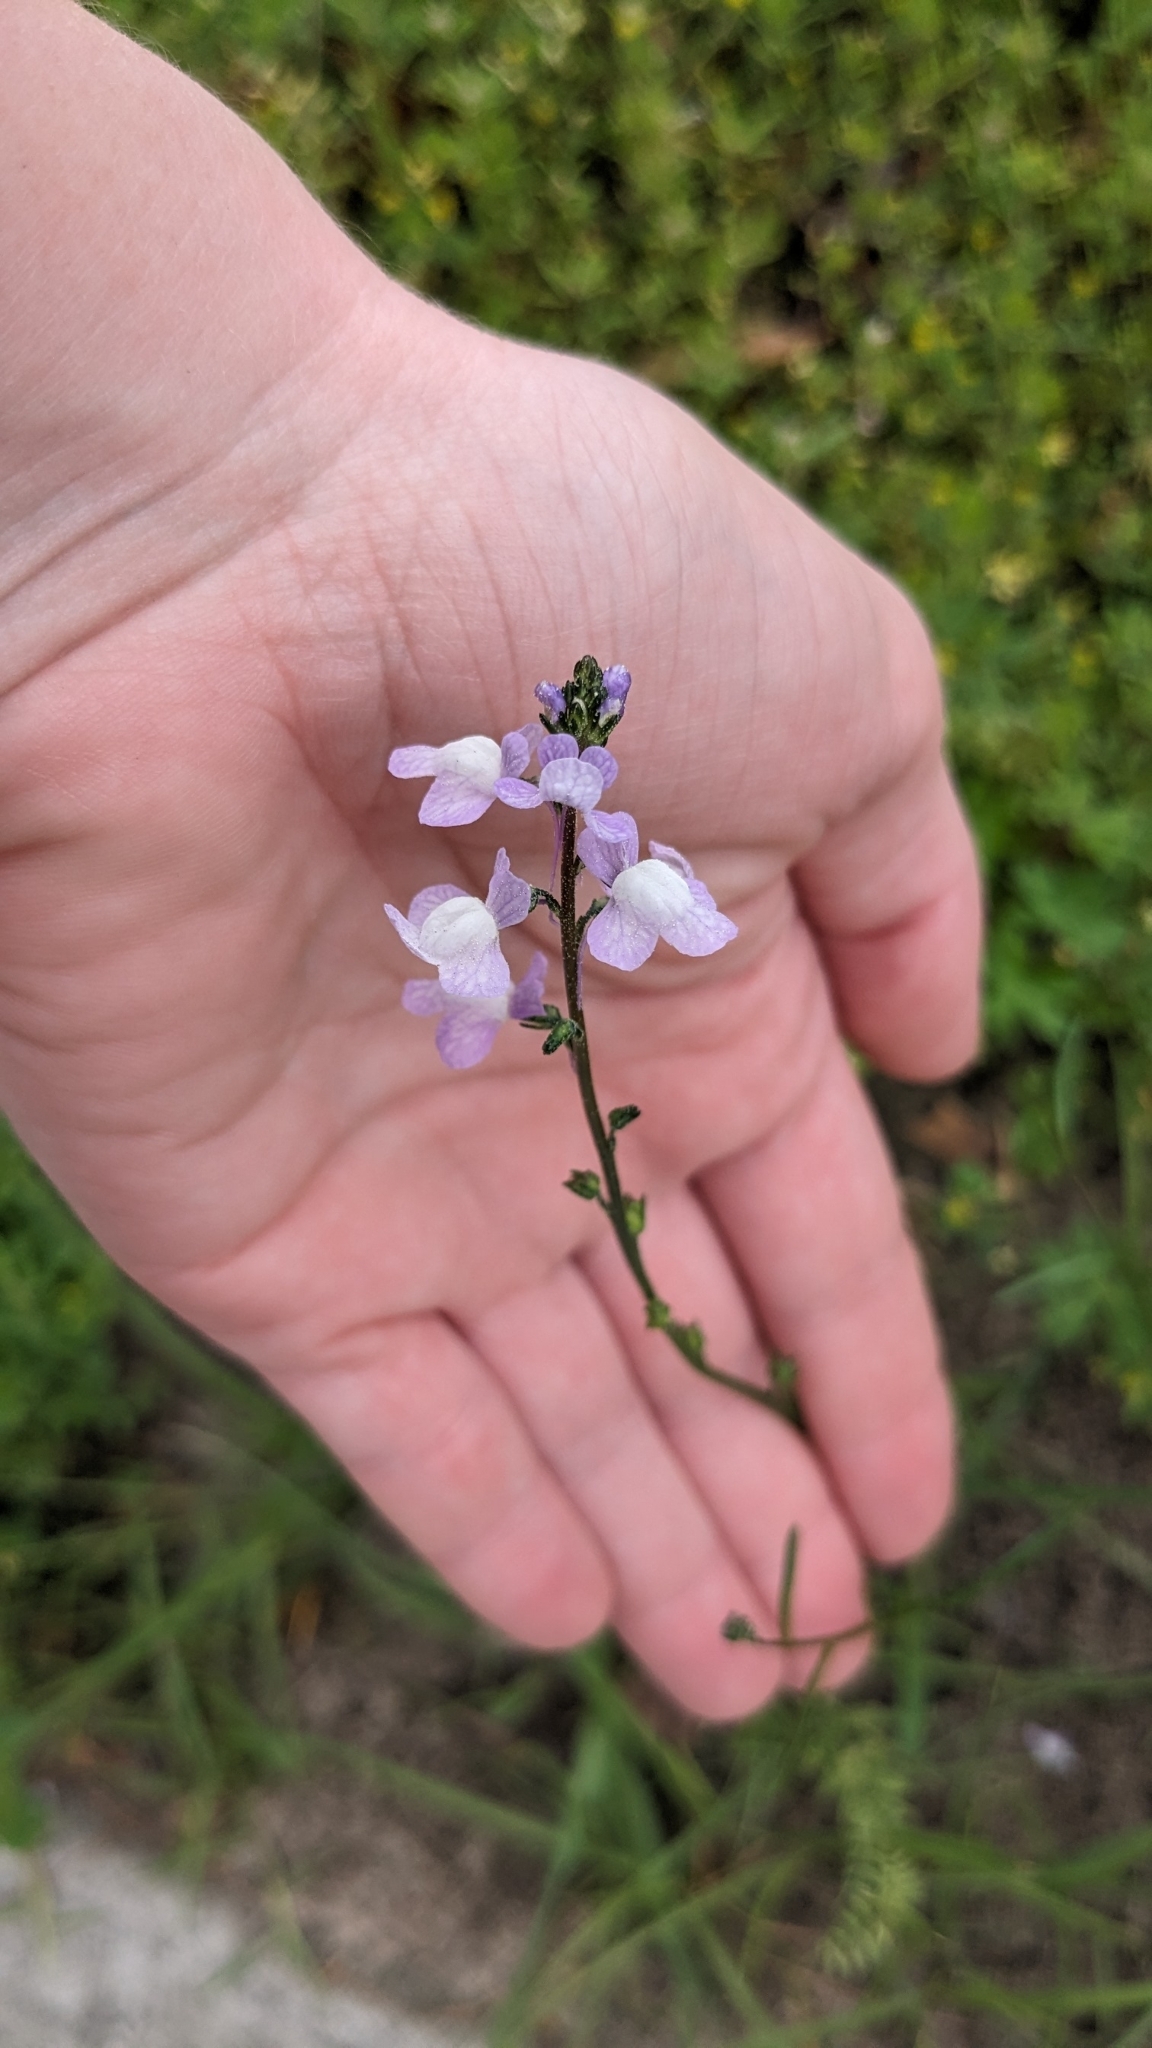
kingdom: Plantae
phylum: Tracheophyta
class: Magnoliopsida
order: Lamiales
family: Plantaginaceae
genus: Nuttallanthus
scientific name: Nuttallanthus canadensis
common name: Blue toadflax
